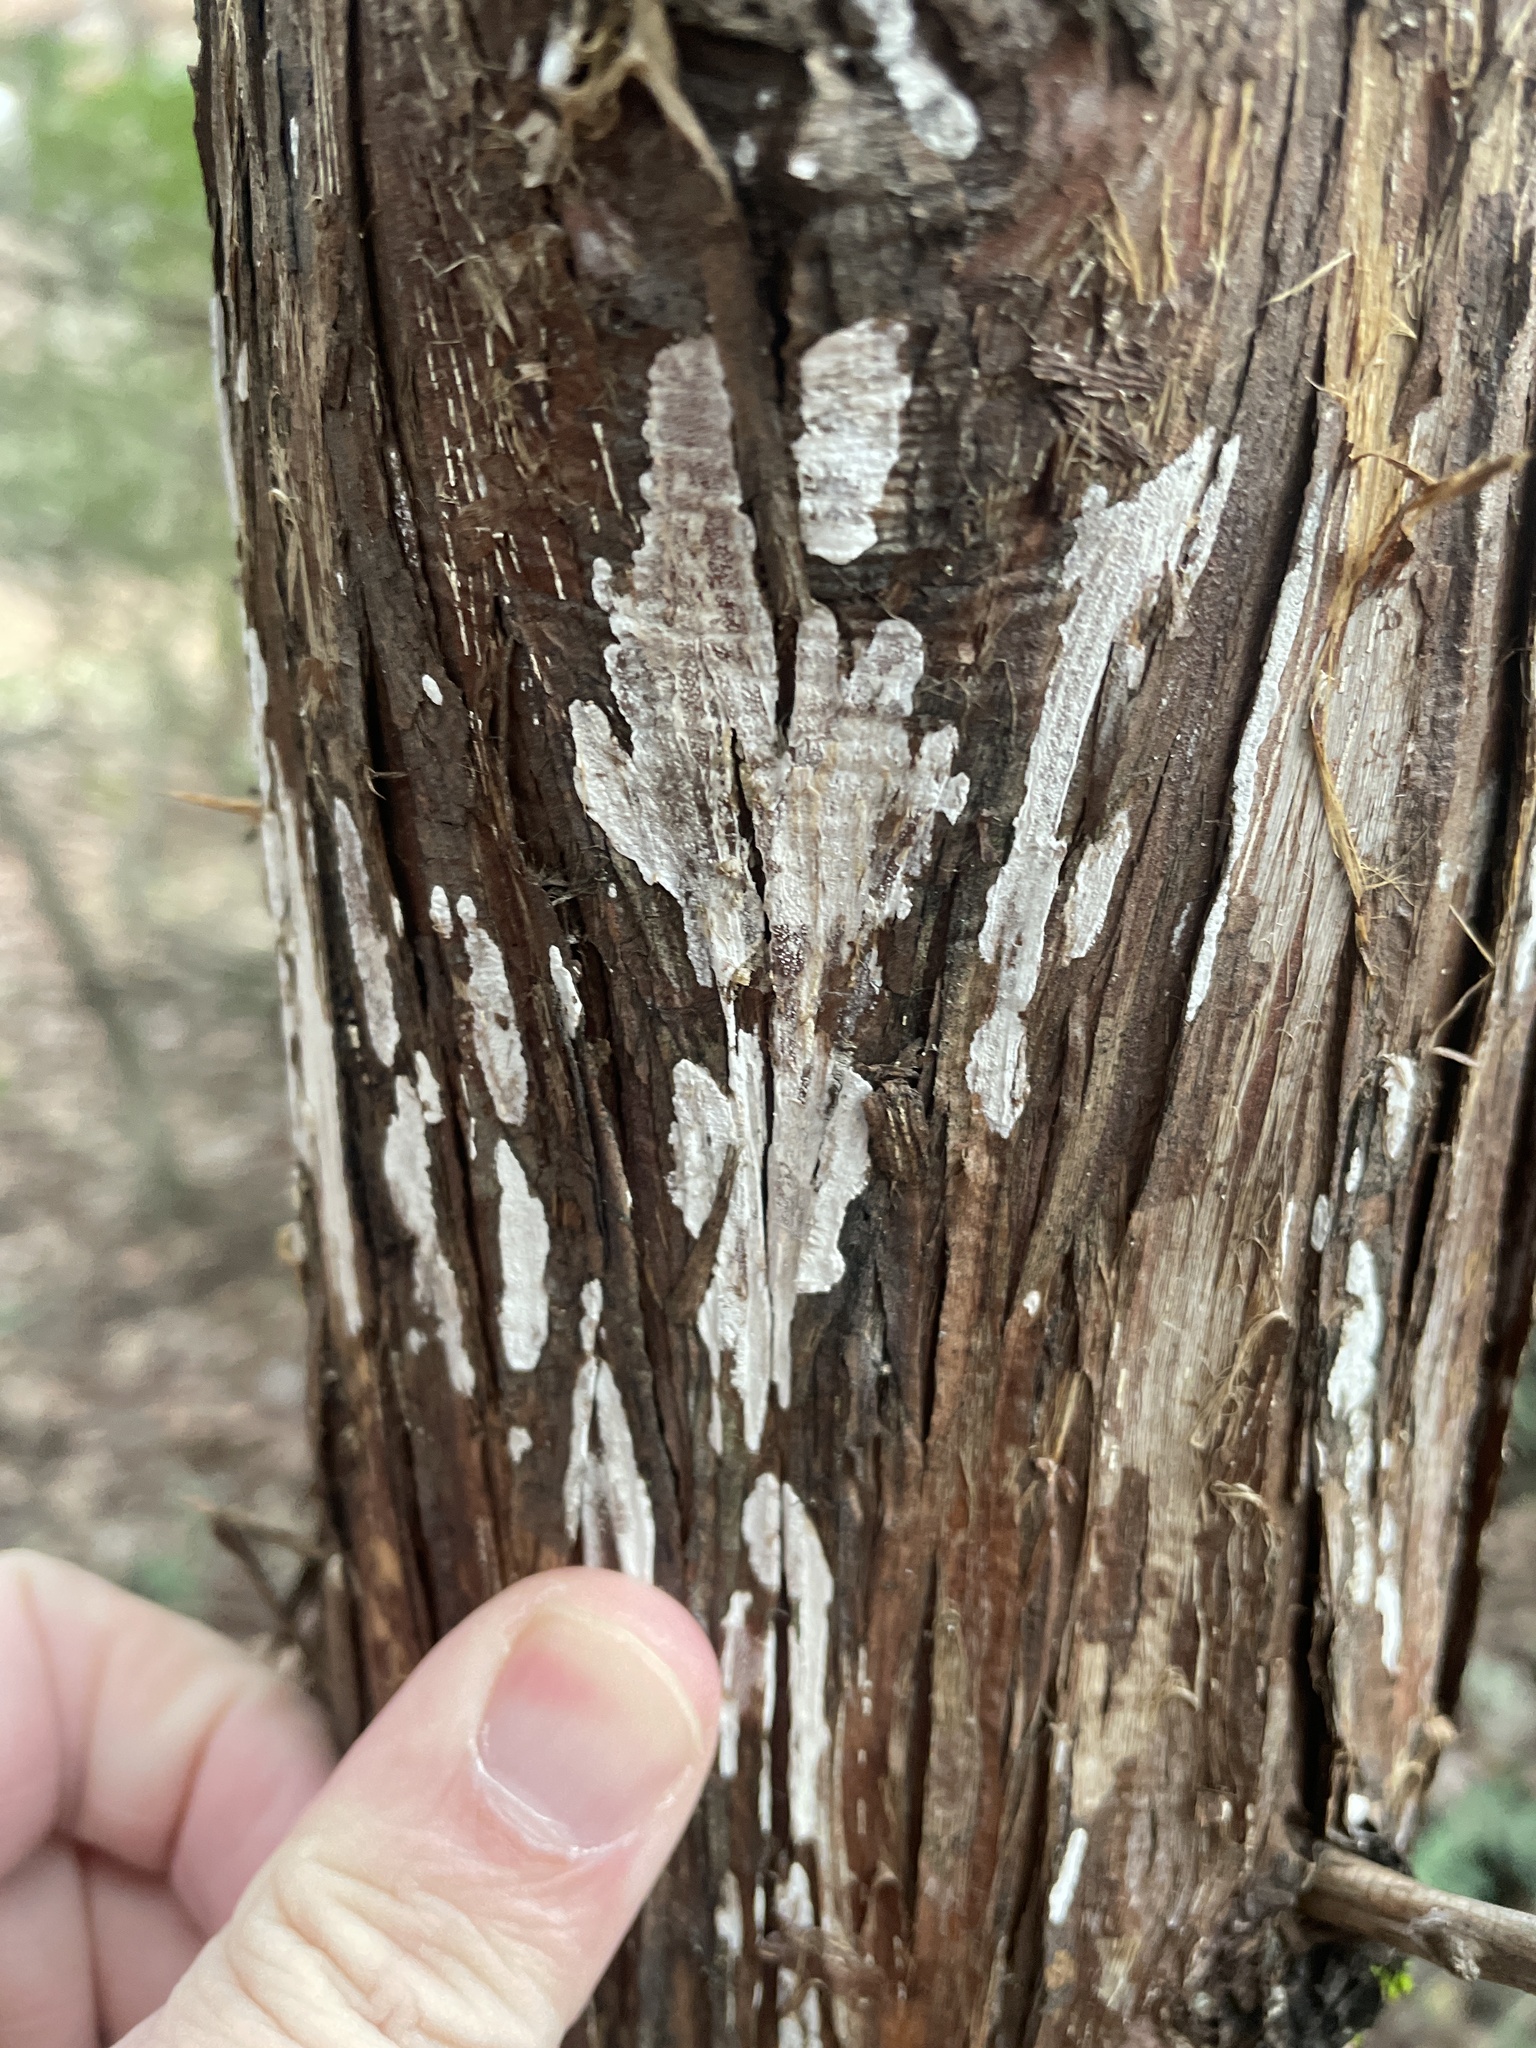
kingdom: Fungi
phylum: Basidiomycota
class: Agaricomycetes
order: Agaricales
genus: Dendrothele
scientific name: Dendrothele nivosa
